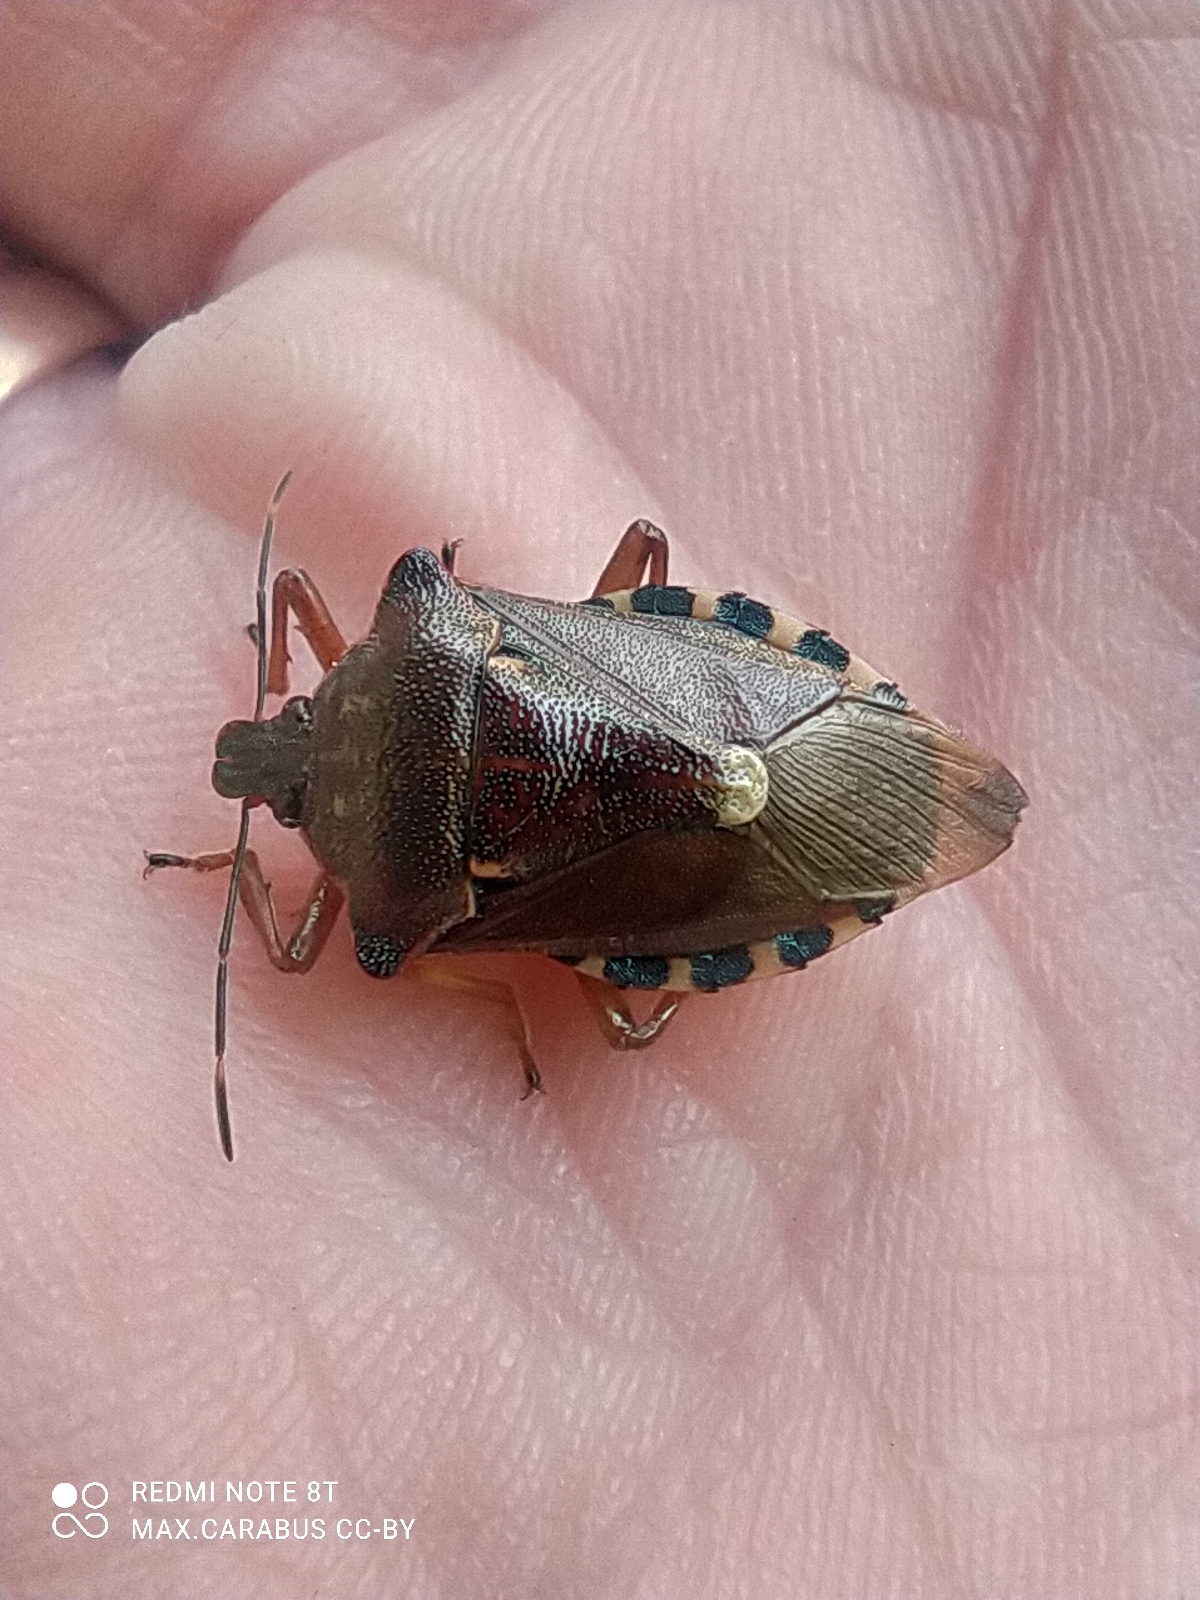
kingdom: Animalia
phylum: Arthropoda
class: Insecta
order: Hemiptera
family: Pentatomidae
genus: Pinthaeus
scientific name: Pinthaeus sanguinipes
